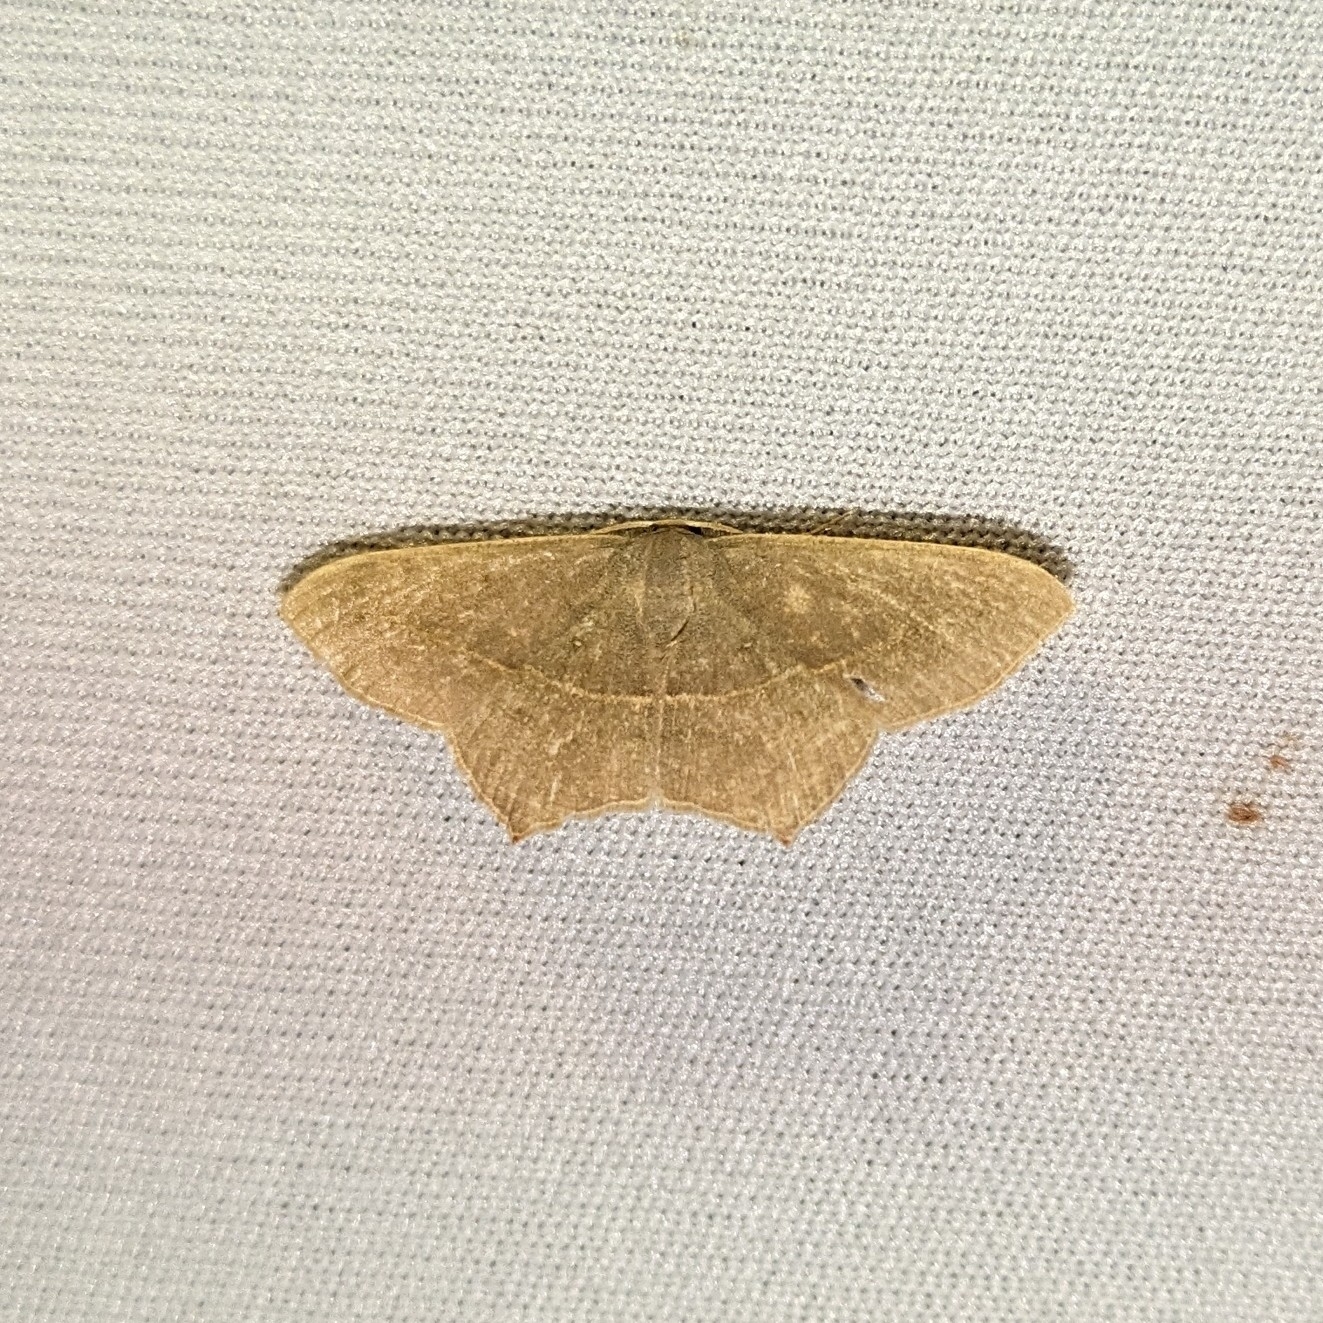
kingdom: Animalia
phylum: Arthropoda
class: Insecta
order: Lepidoptera
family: Geometridae
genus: Traminda
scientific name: Traminda mundissima
